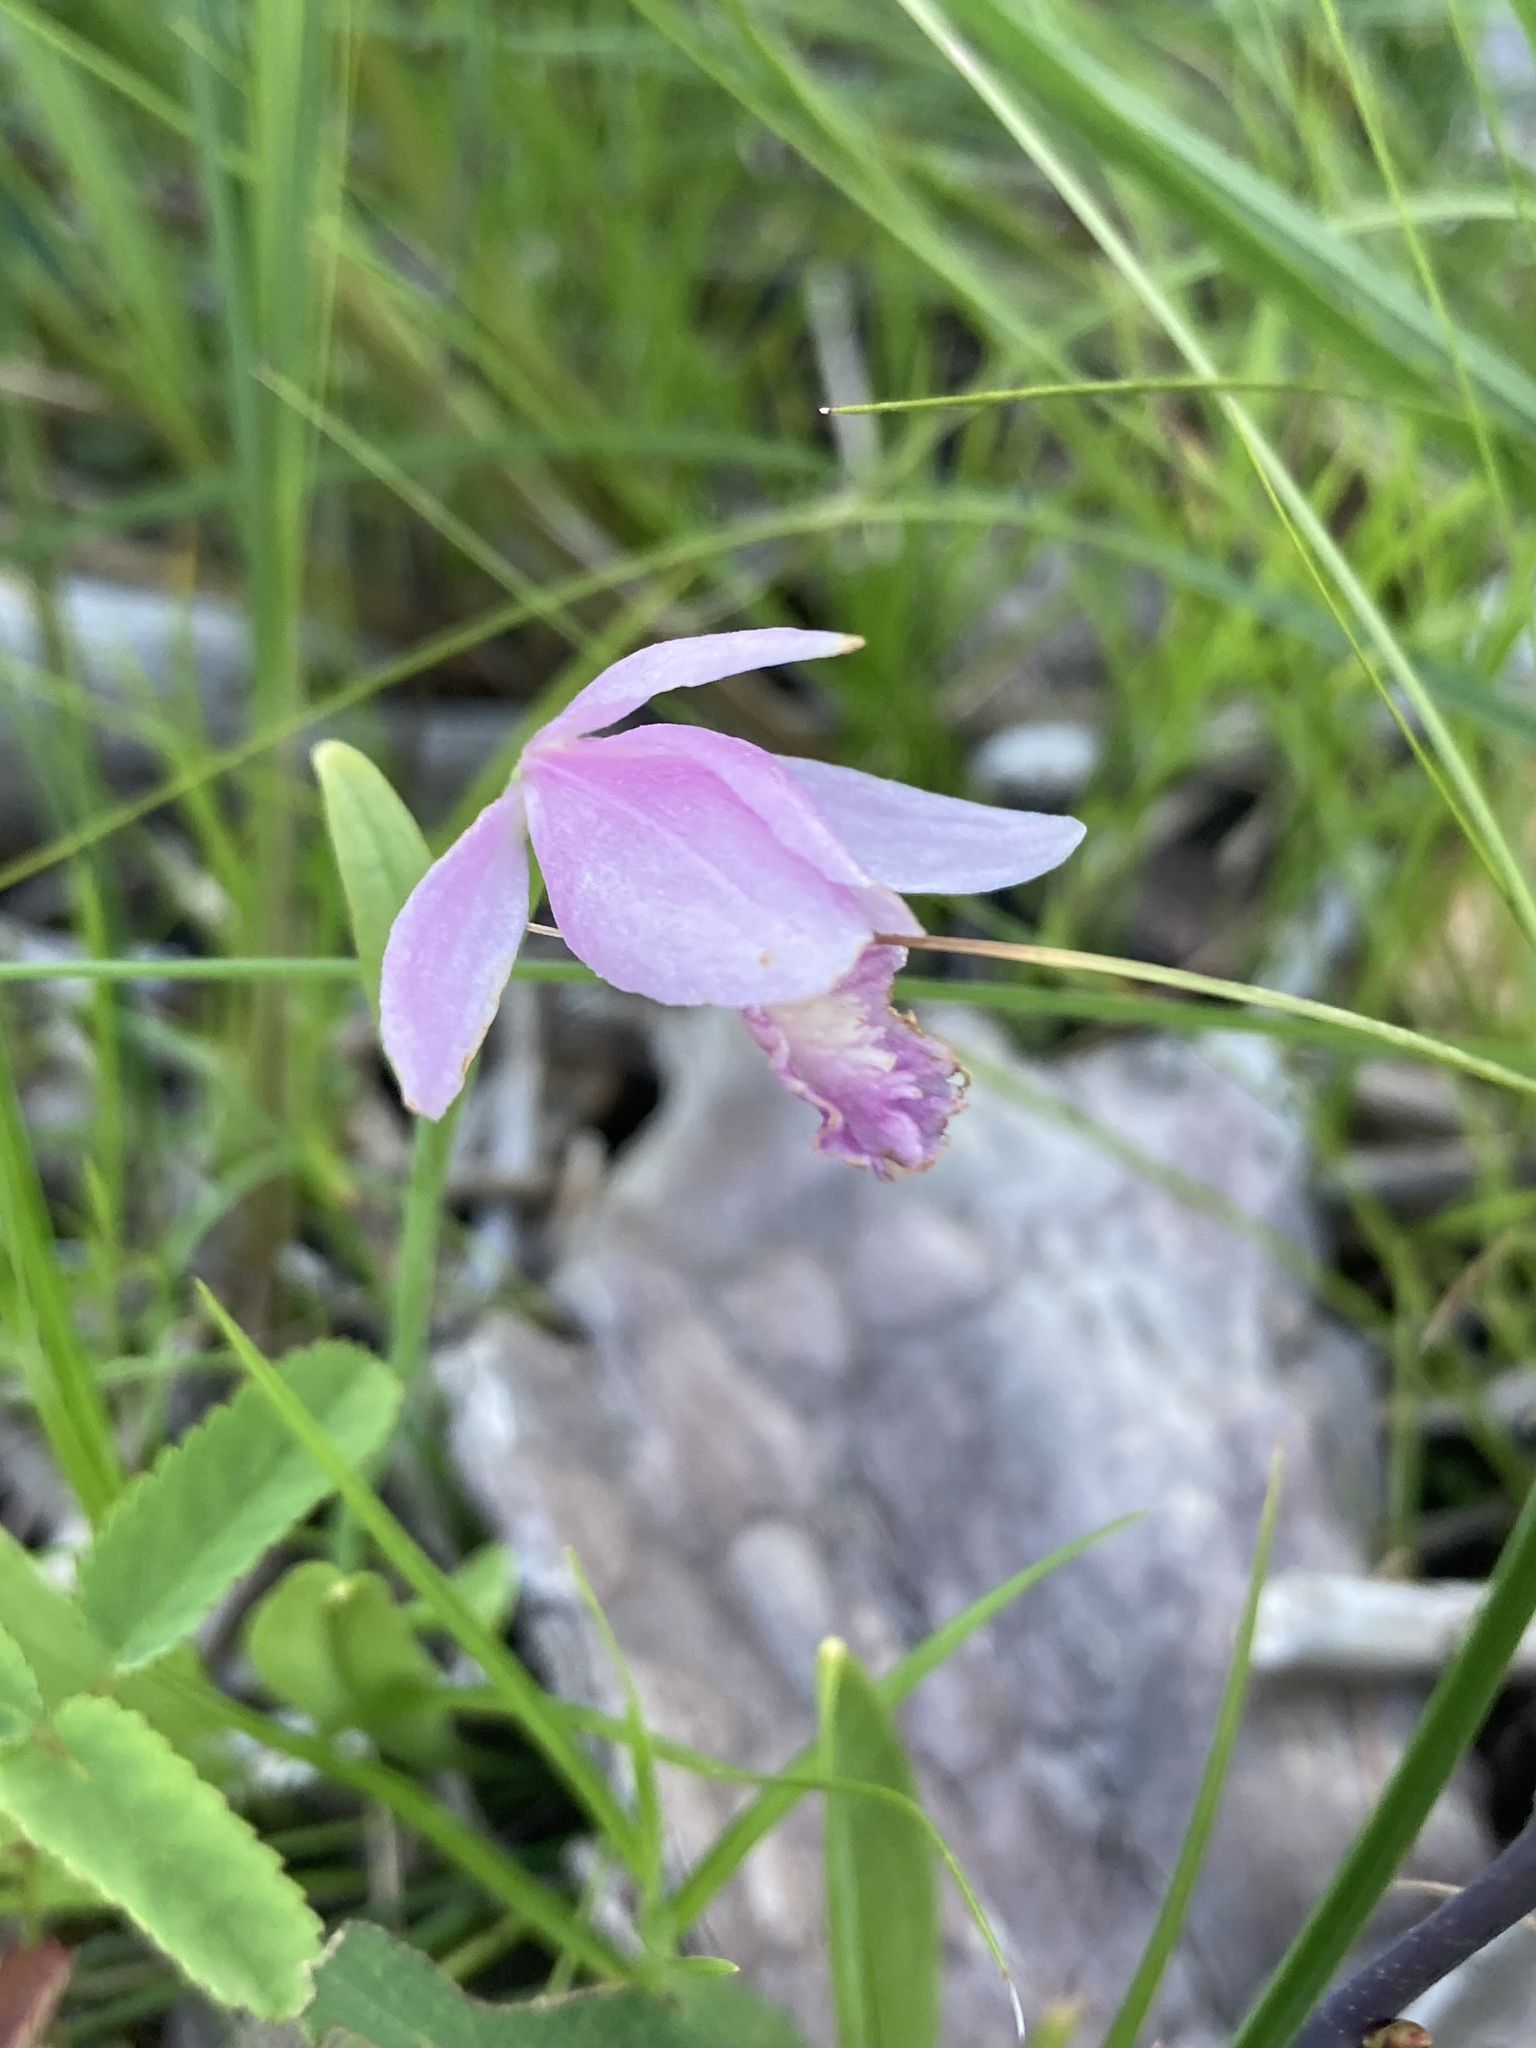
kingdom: Plantae
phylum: Tracheophyta
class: Liliopsida
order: Asparagales
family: Orchidaceae
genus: Pogonia
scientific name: Pogonia ophioglossoides
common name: Rose pogonia
